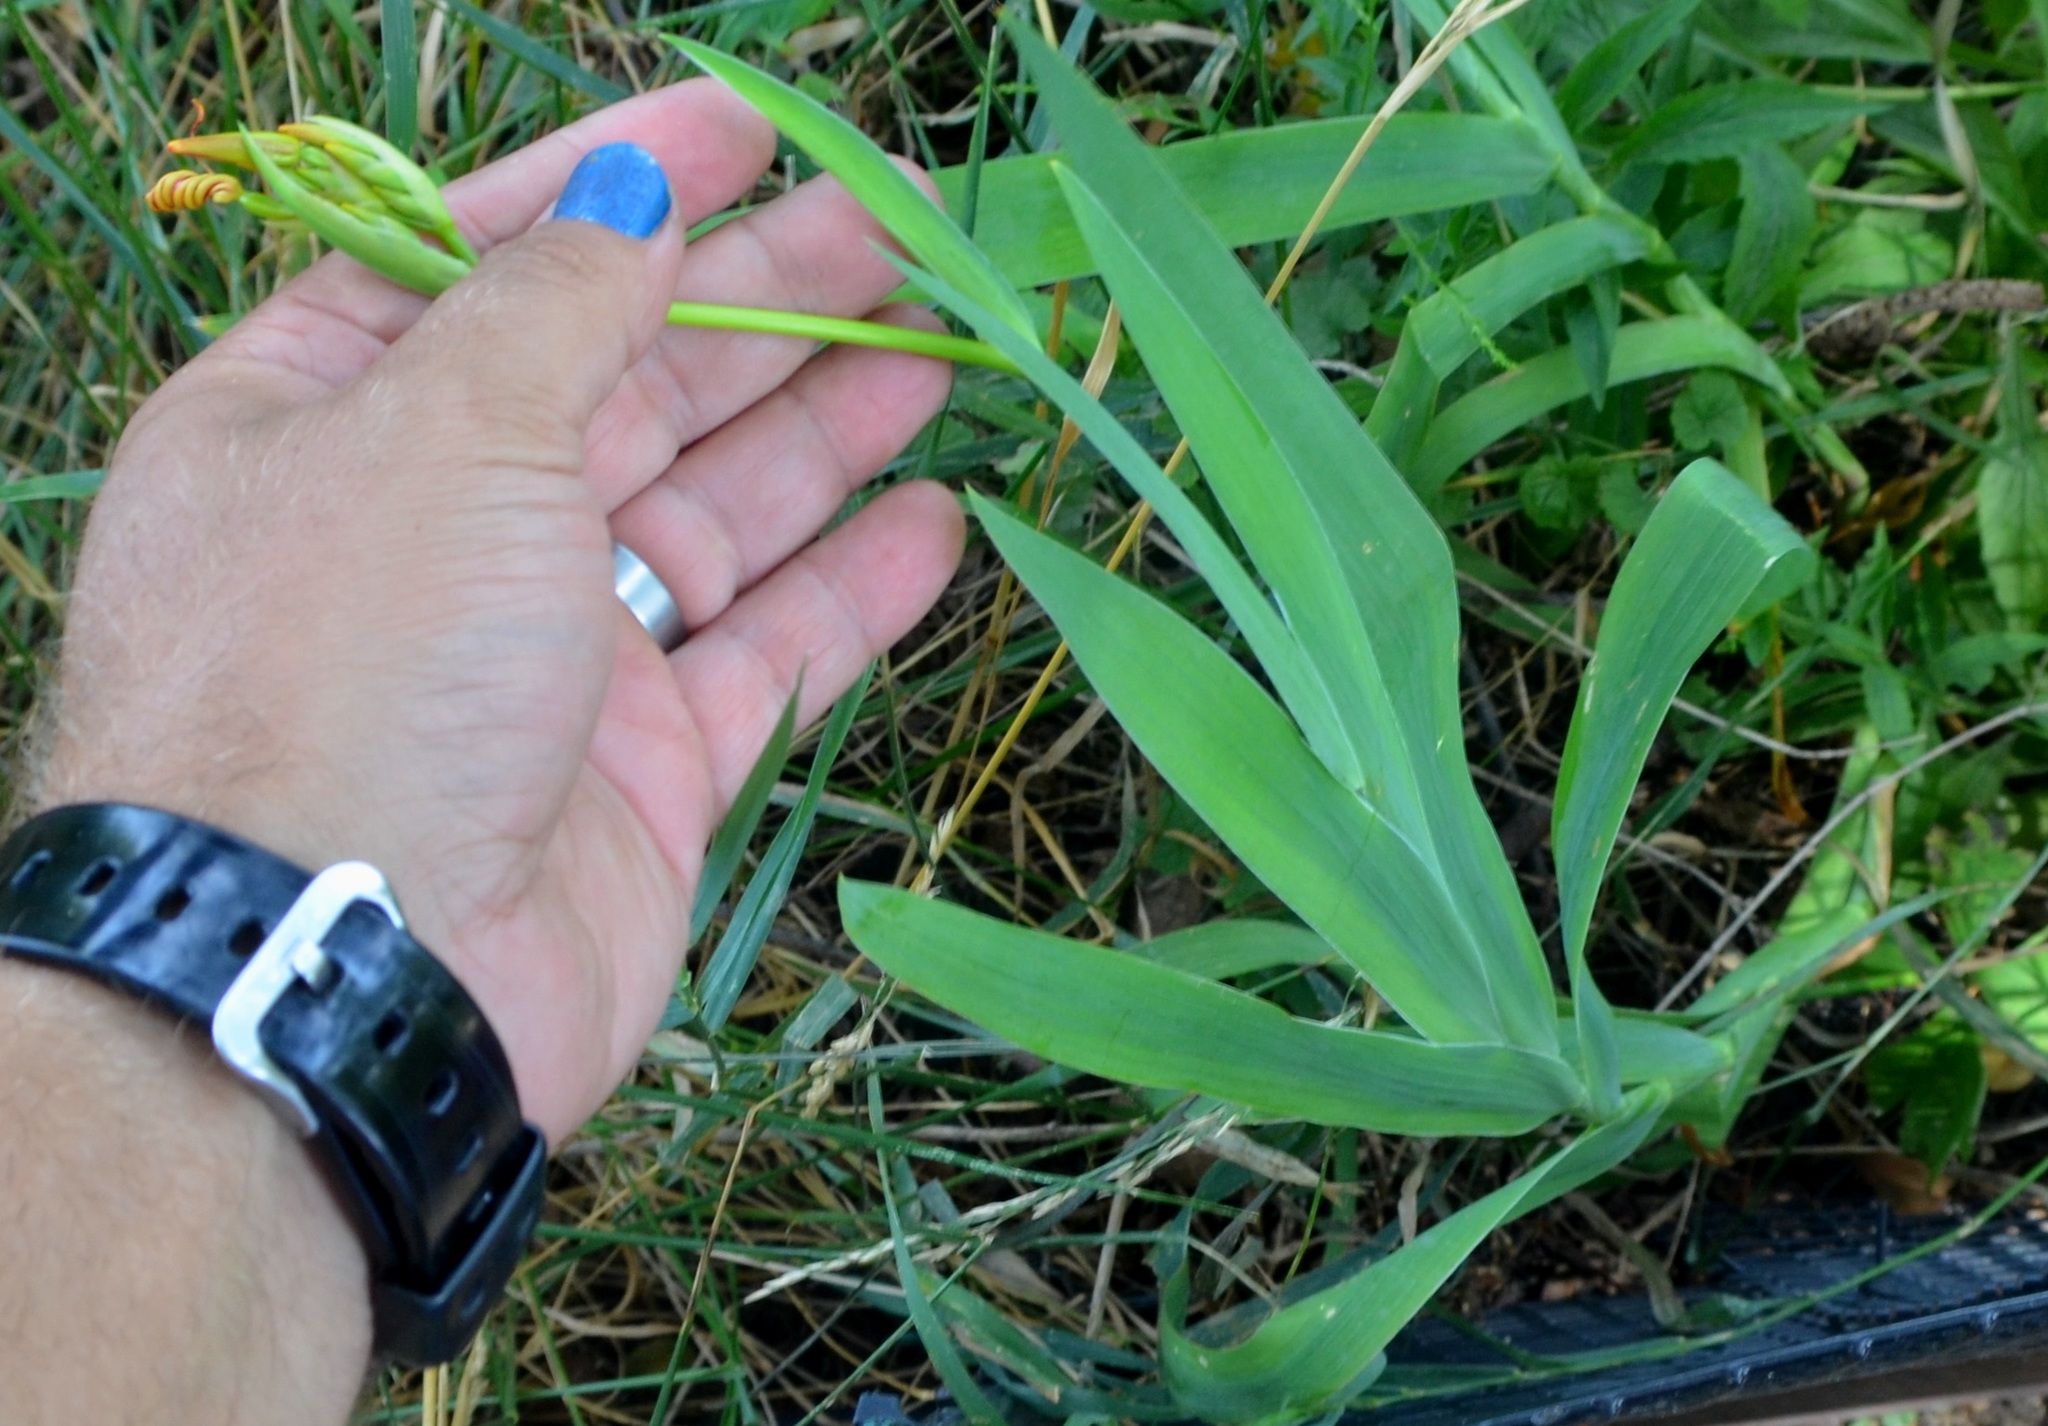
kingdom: Plantae
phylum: Tracheophyta
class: Liliopsida
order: Asparagales
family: Iridaceae
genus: Iris
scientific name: Iris domestica
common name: Belamcanda
